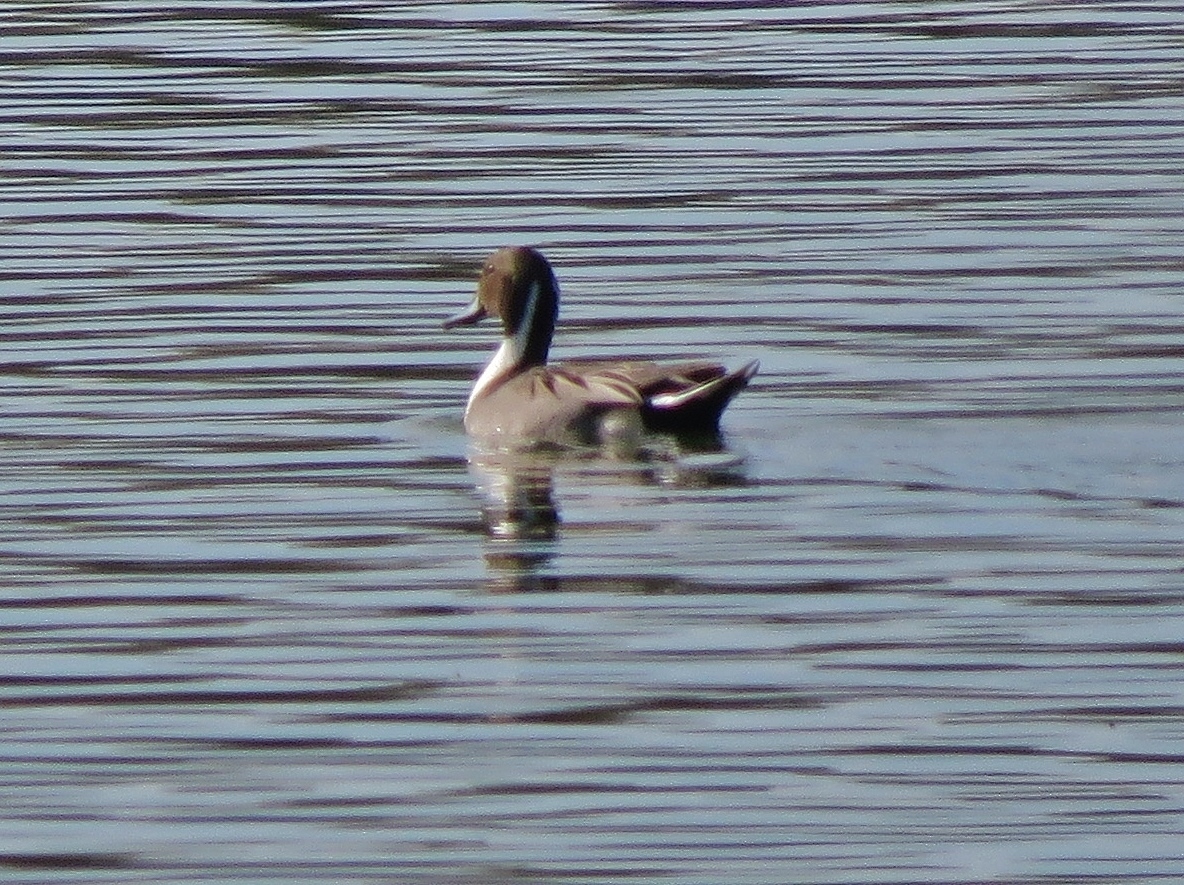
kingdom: Animalia
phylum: Chordata
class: Aves
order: Anseriformes
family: Anatidae
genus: Anas
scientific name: Anas acuta
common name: Northern pintail
